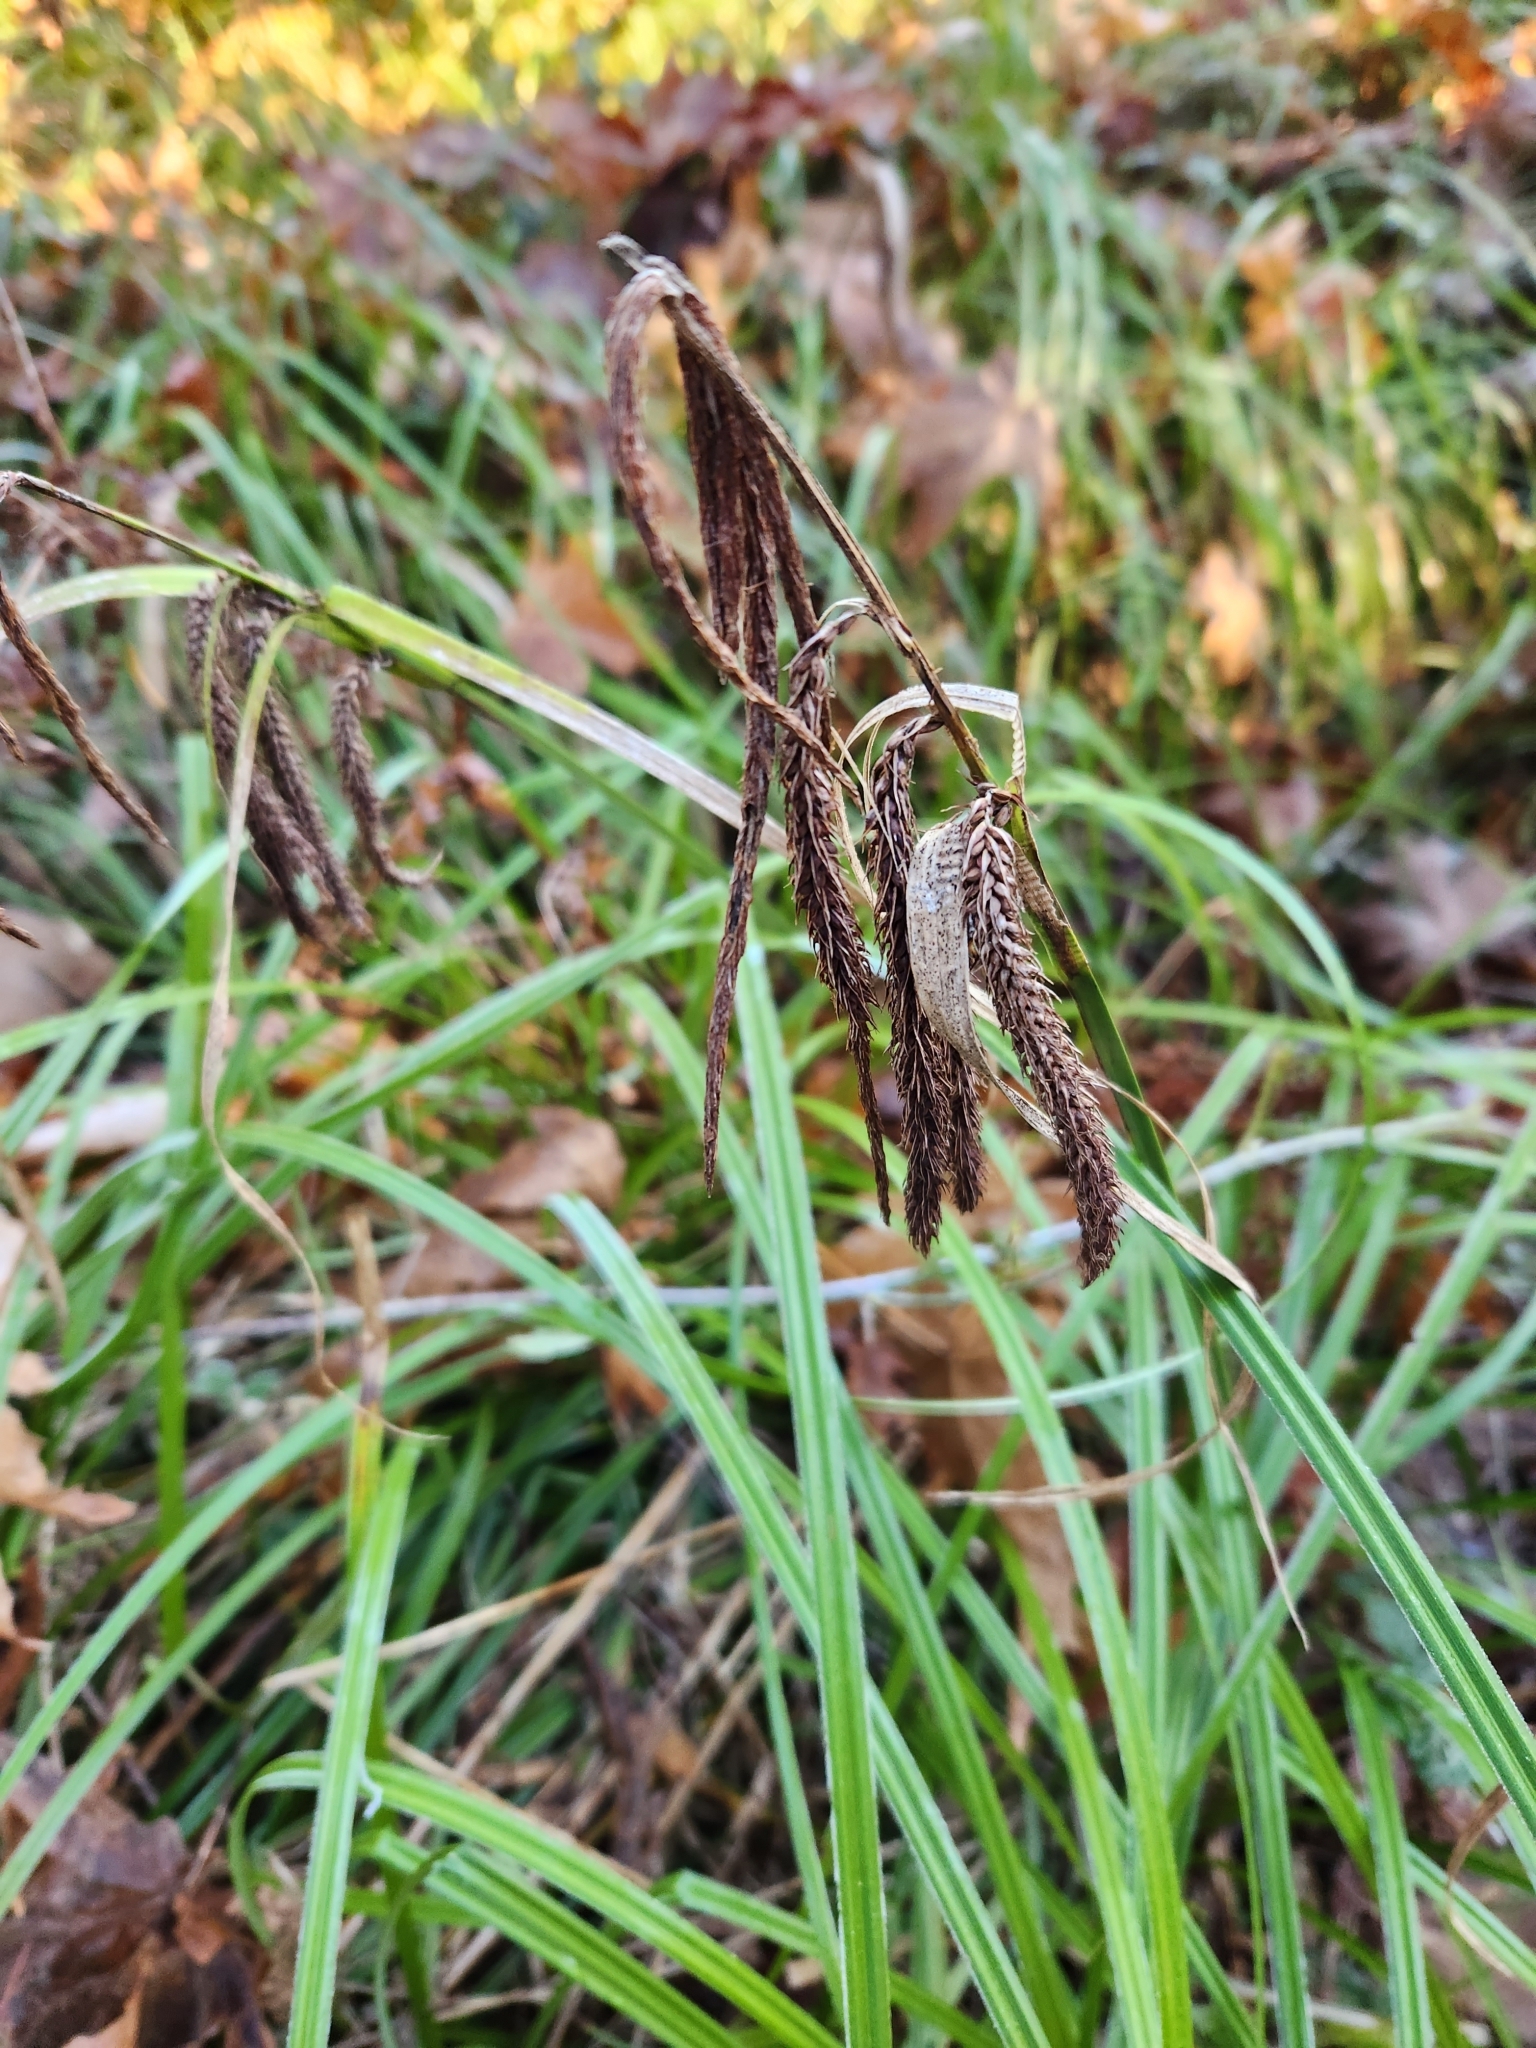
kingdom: Plantae
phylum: Tracheophyta
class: Liliopsida
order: Poales
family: Cyperaceae
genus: Carex
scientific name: Carex obnupta
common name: Slough sedge
